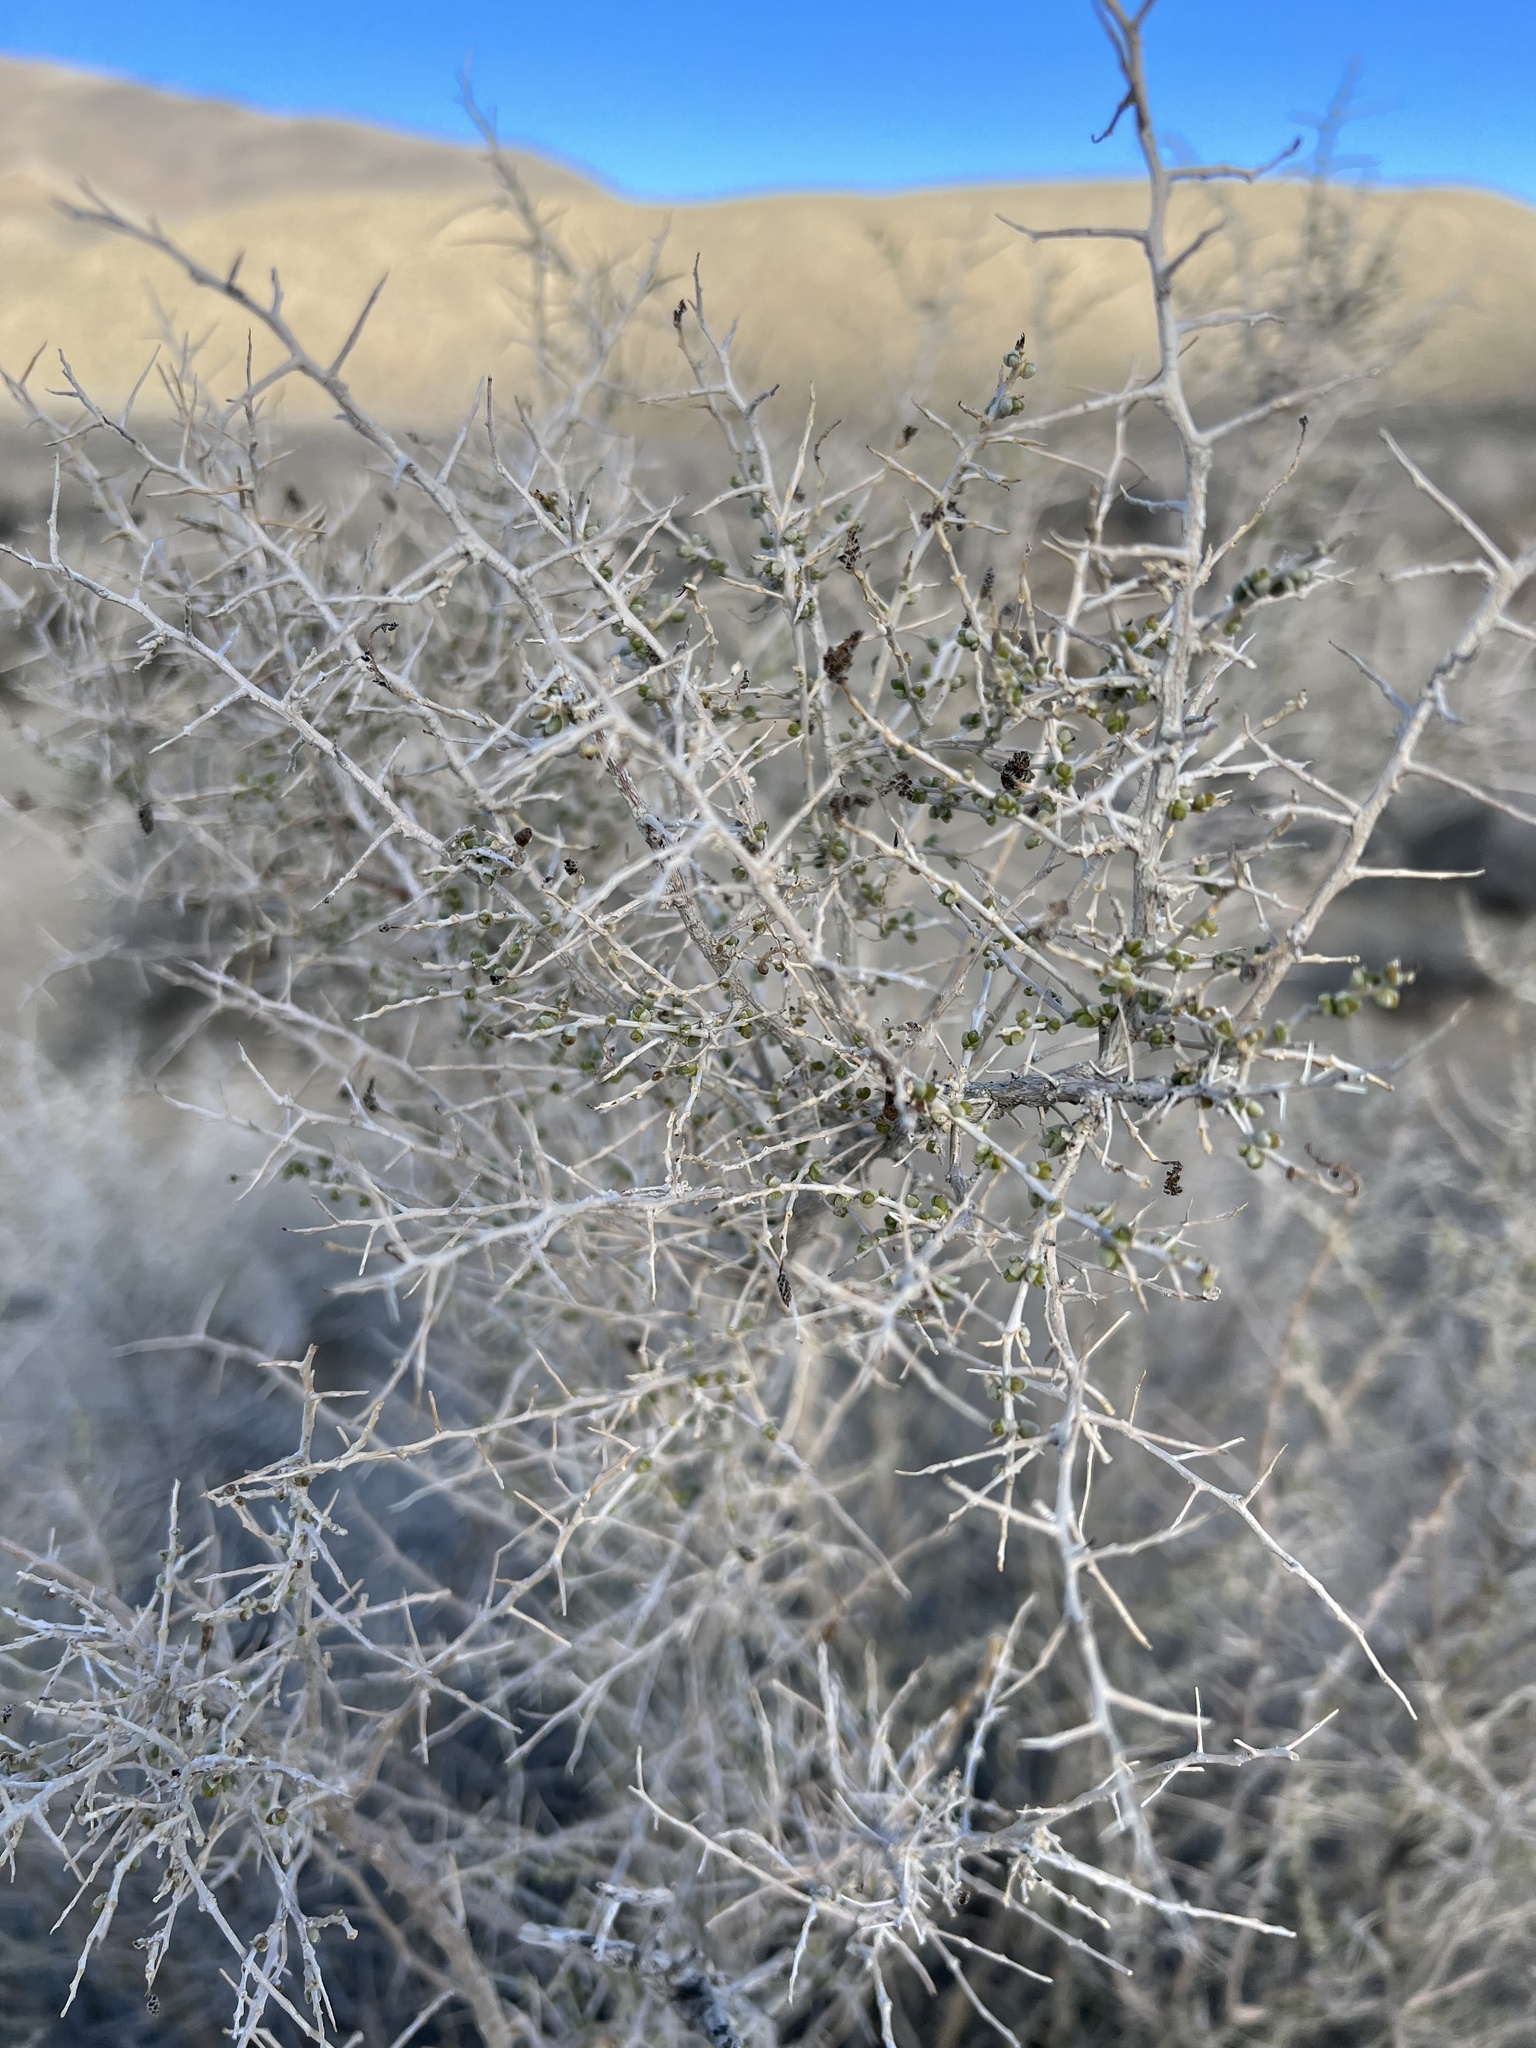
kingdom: Plantae
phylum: Tracheophyta
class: Magnoliopsida
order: Caryophyllales
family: Sarcobataceae
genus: Sarcobatus
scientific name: Sarcobatus vermiculatus
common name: Greasewood
